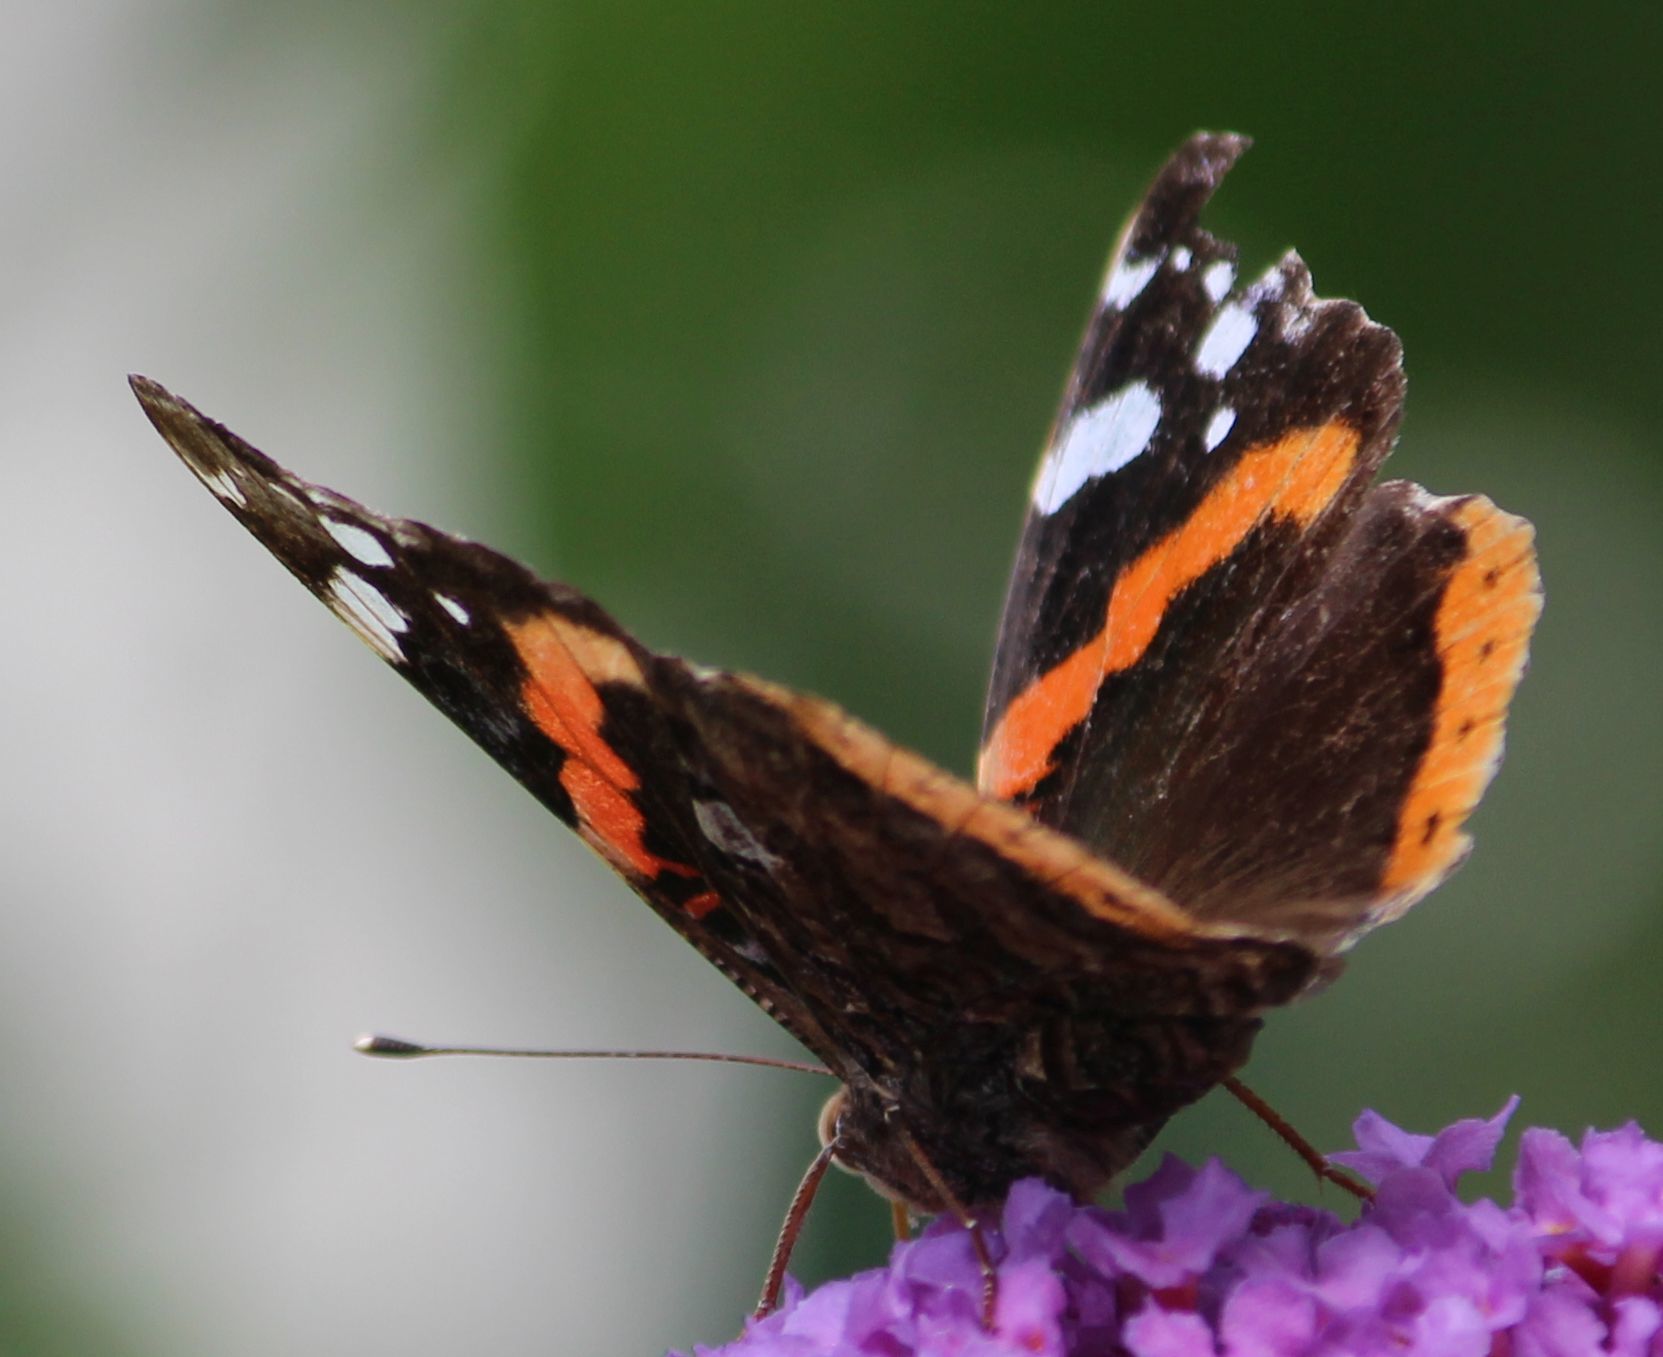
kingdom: Animalia
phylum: Arthropoda
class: Insecta
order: Lepidoptera
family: Nymphalidae
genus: Vanessa
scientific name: Vanessa atalanta
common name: Red admiral
